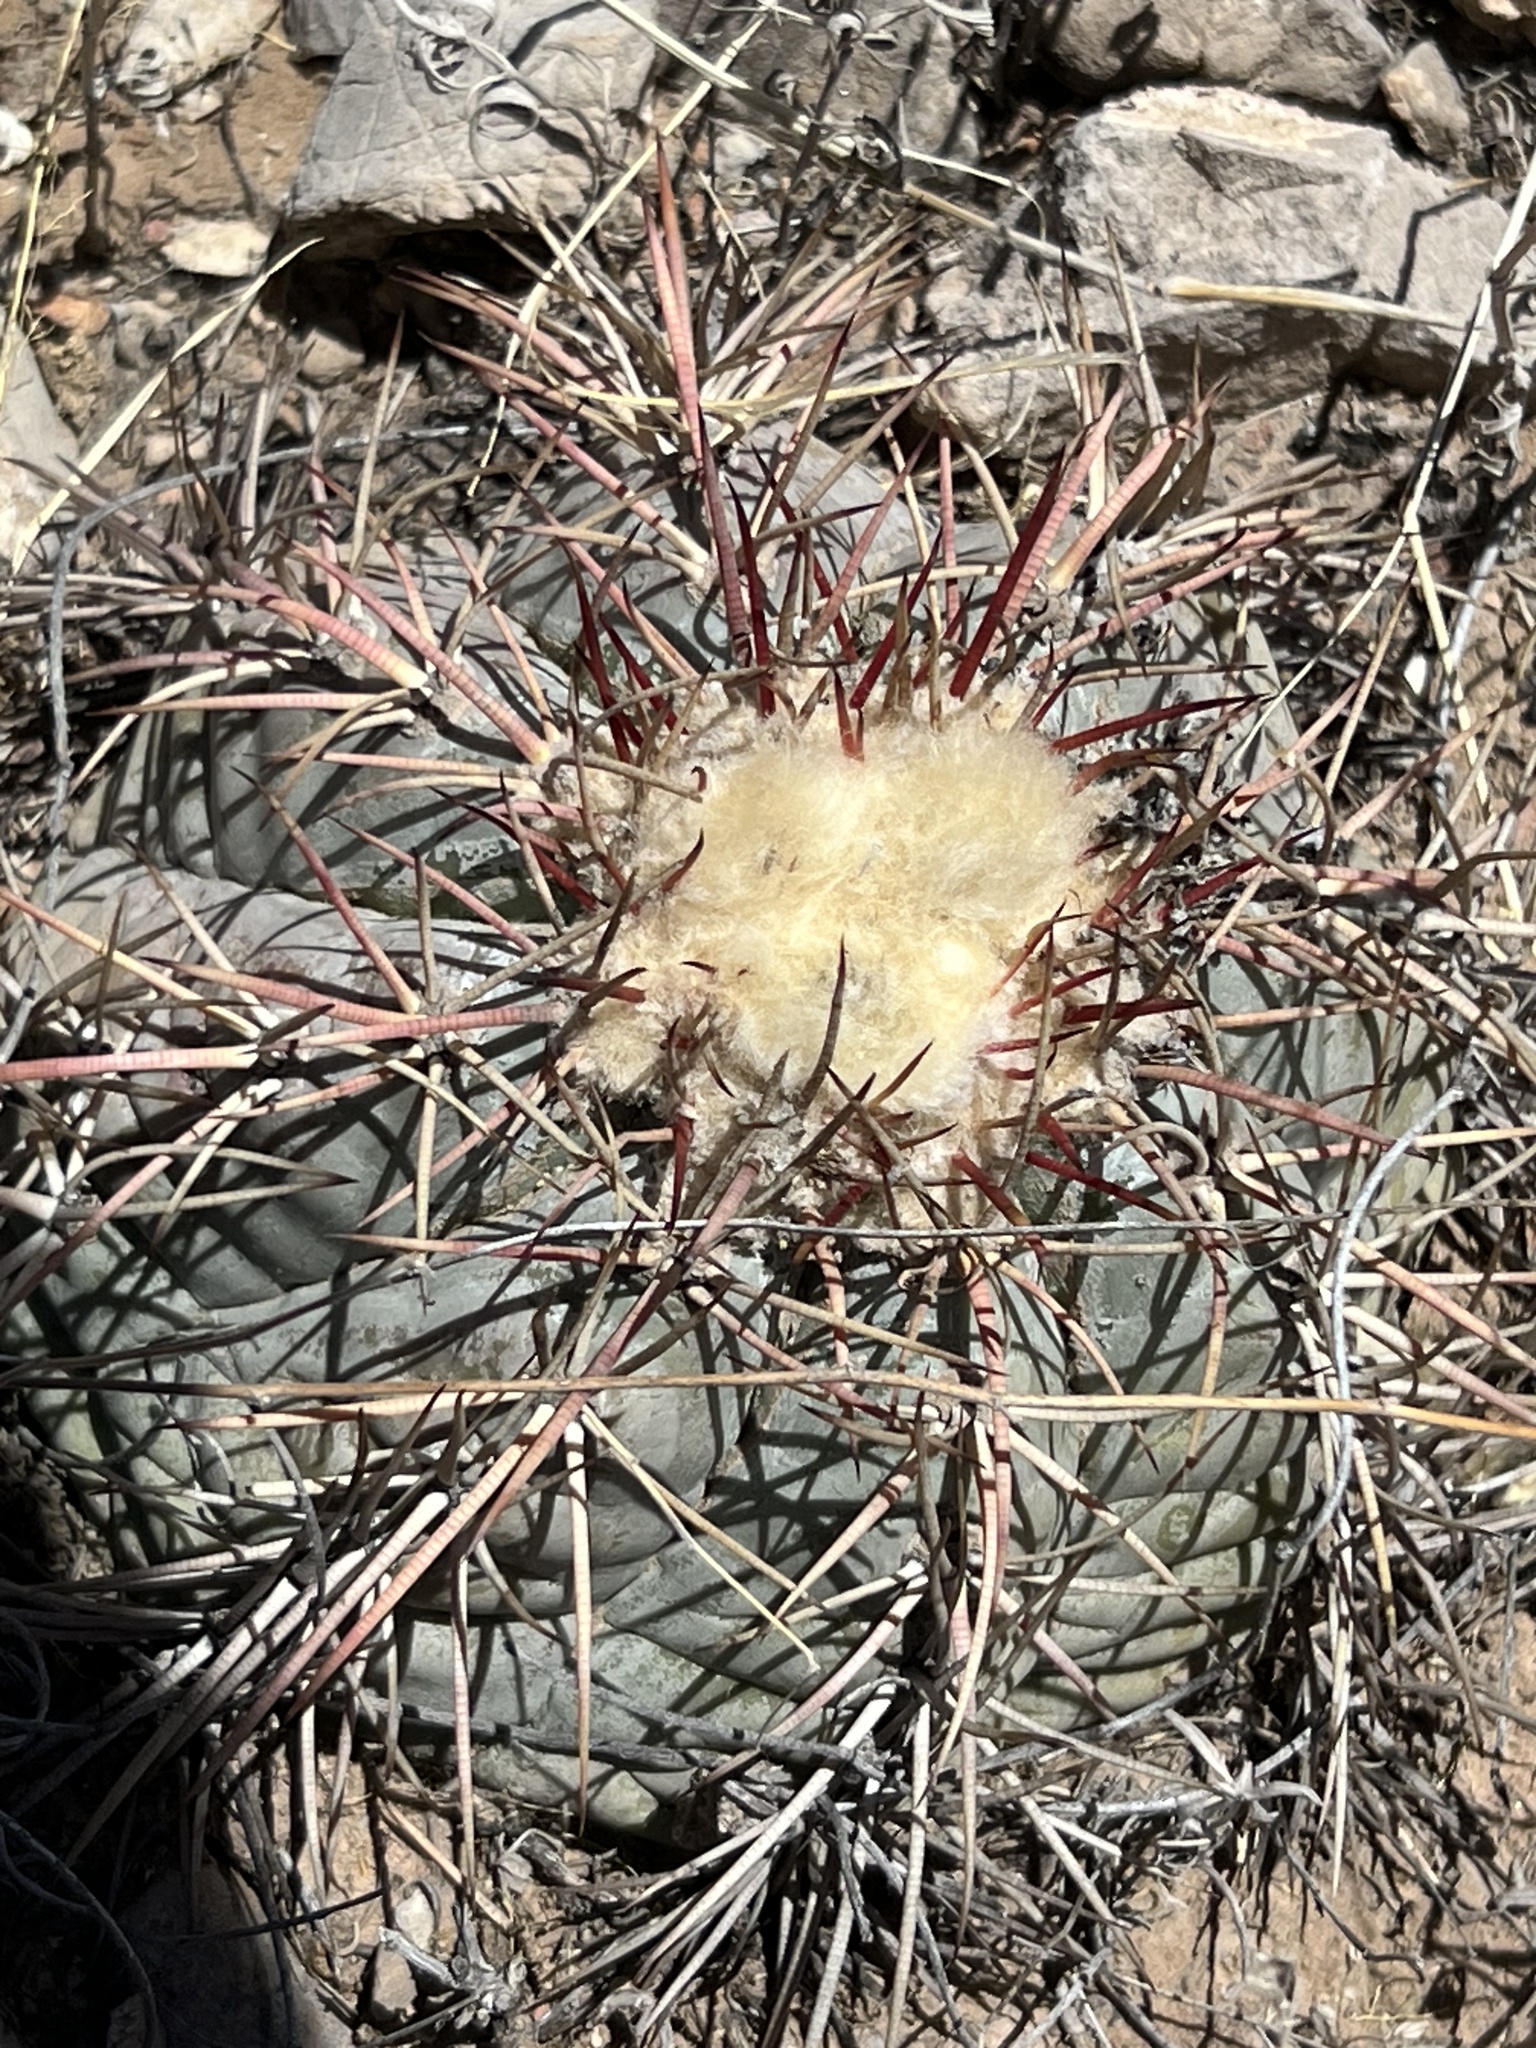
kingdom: Plantae
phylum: Tracheophyta
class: Magnoliopsida
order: Caryophyllales
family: Cactaceae
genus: Echinocactus
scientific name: Echinocactus horizonthalonius
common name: Devilshead
